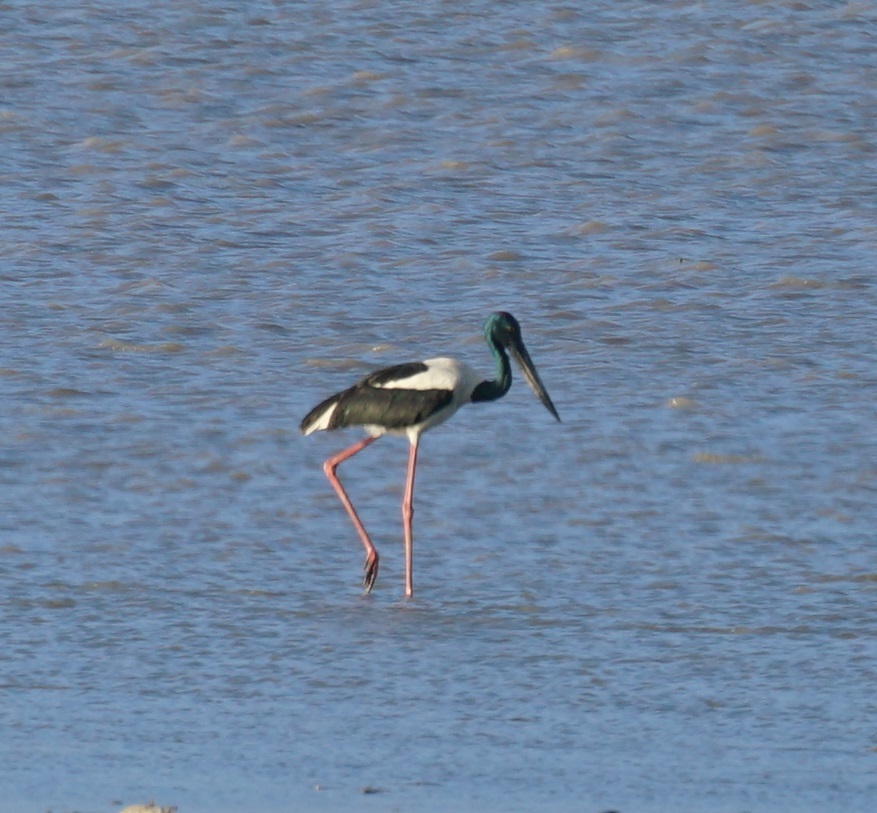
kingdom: Animalia
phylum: Chordata
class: Aves
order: Ciconiiformes
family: Ciconiidae
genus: Ephippiorhynchus
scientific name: Ephippiorhynchus asiaticus
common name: Black-necked stork
